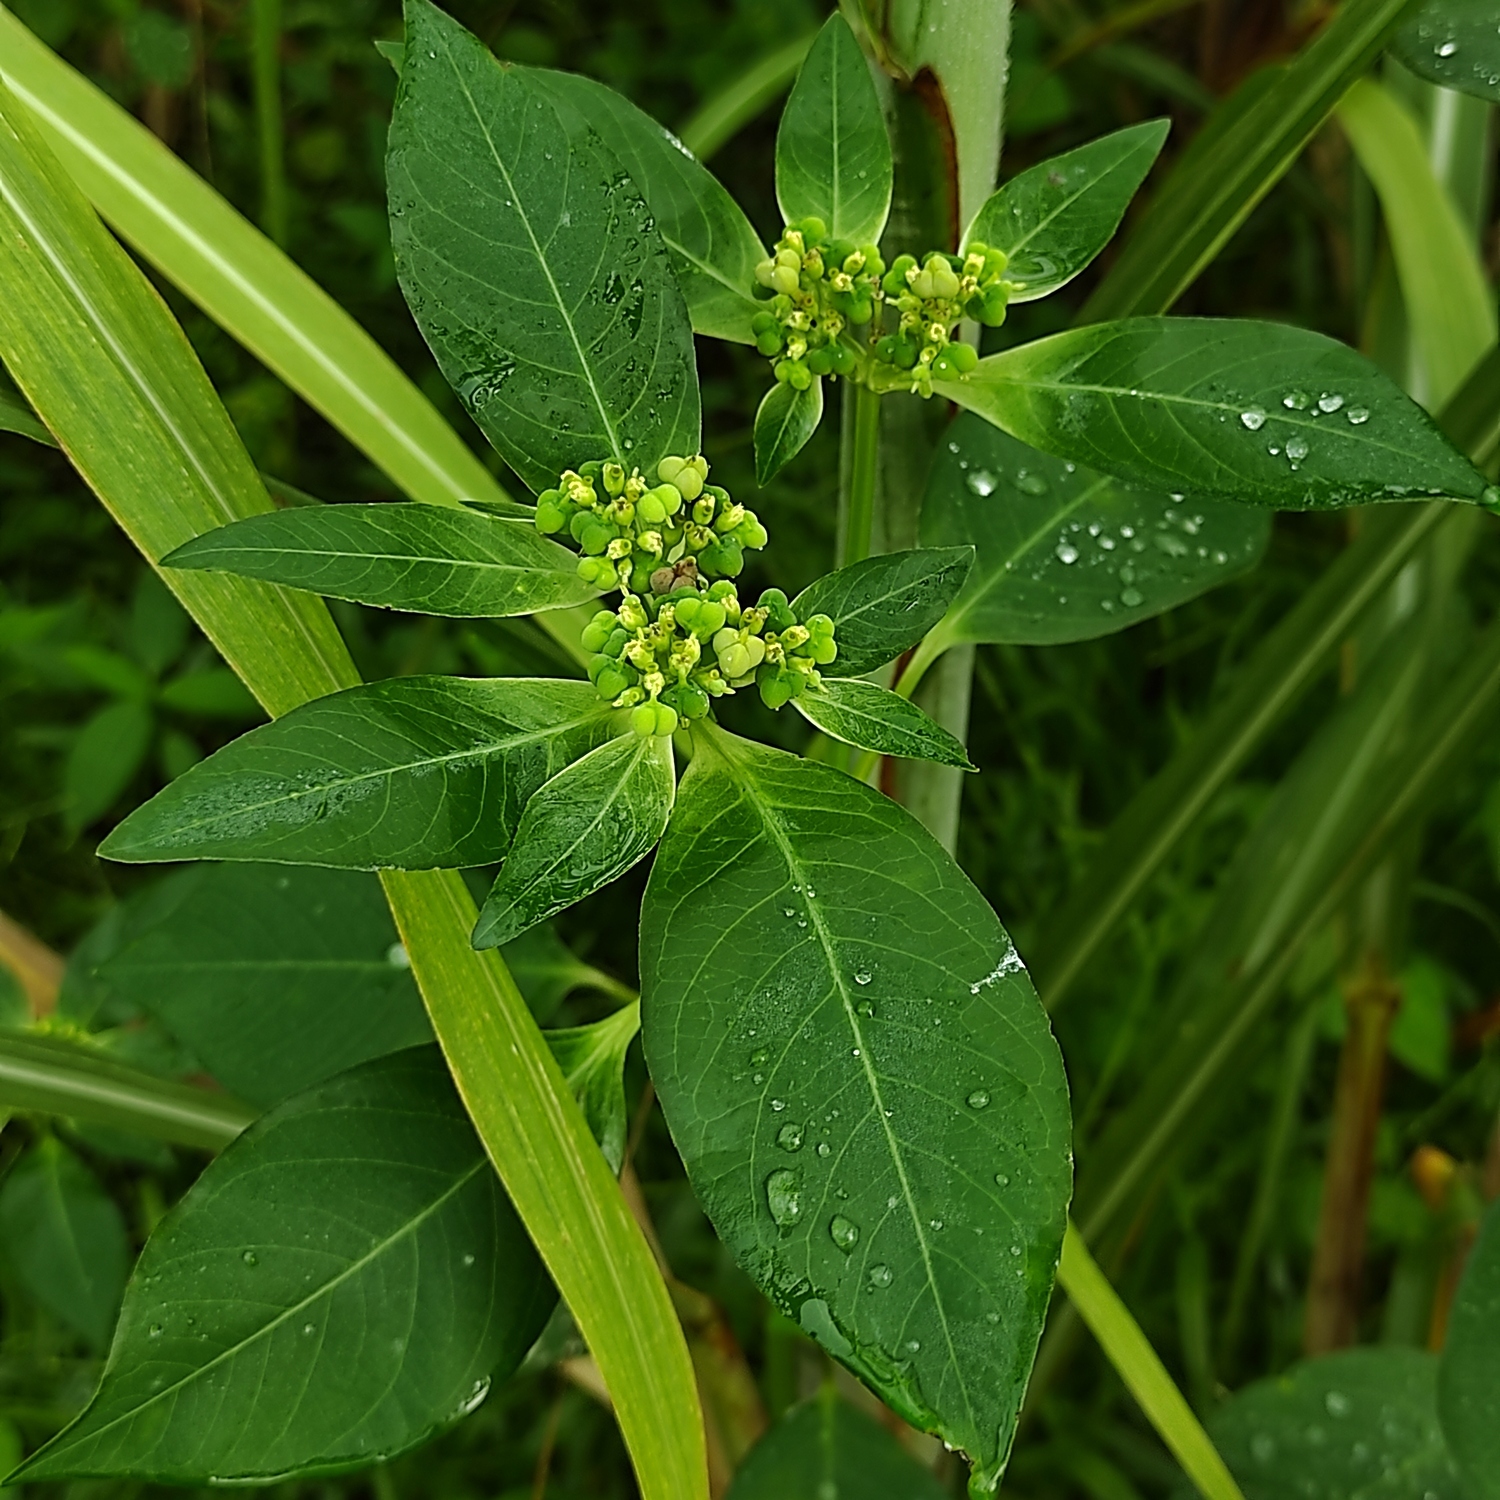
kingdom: Plantae
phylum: Tracheophyta
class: Magnoliopsida
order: Malpighiales
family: Euphorbiaceae
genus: Euphorbia
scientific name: Euphorbia heterophylla
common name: Mexican fireplant
